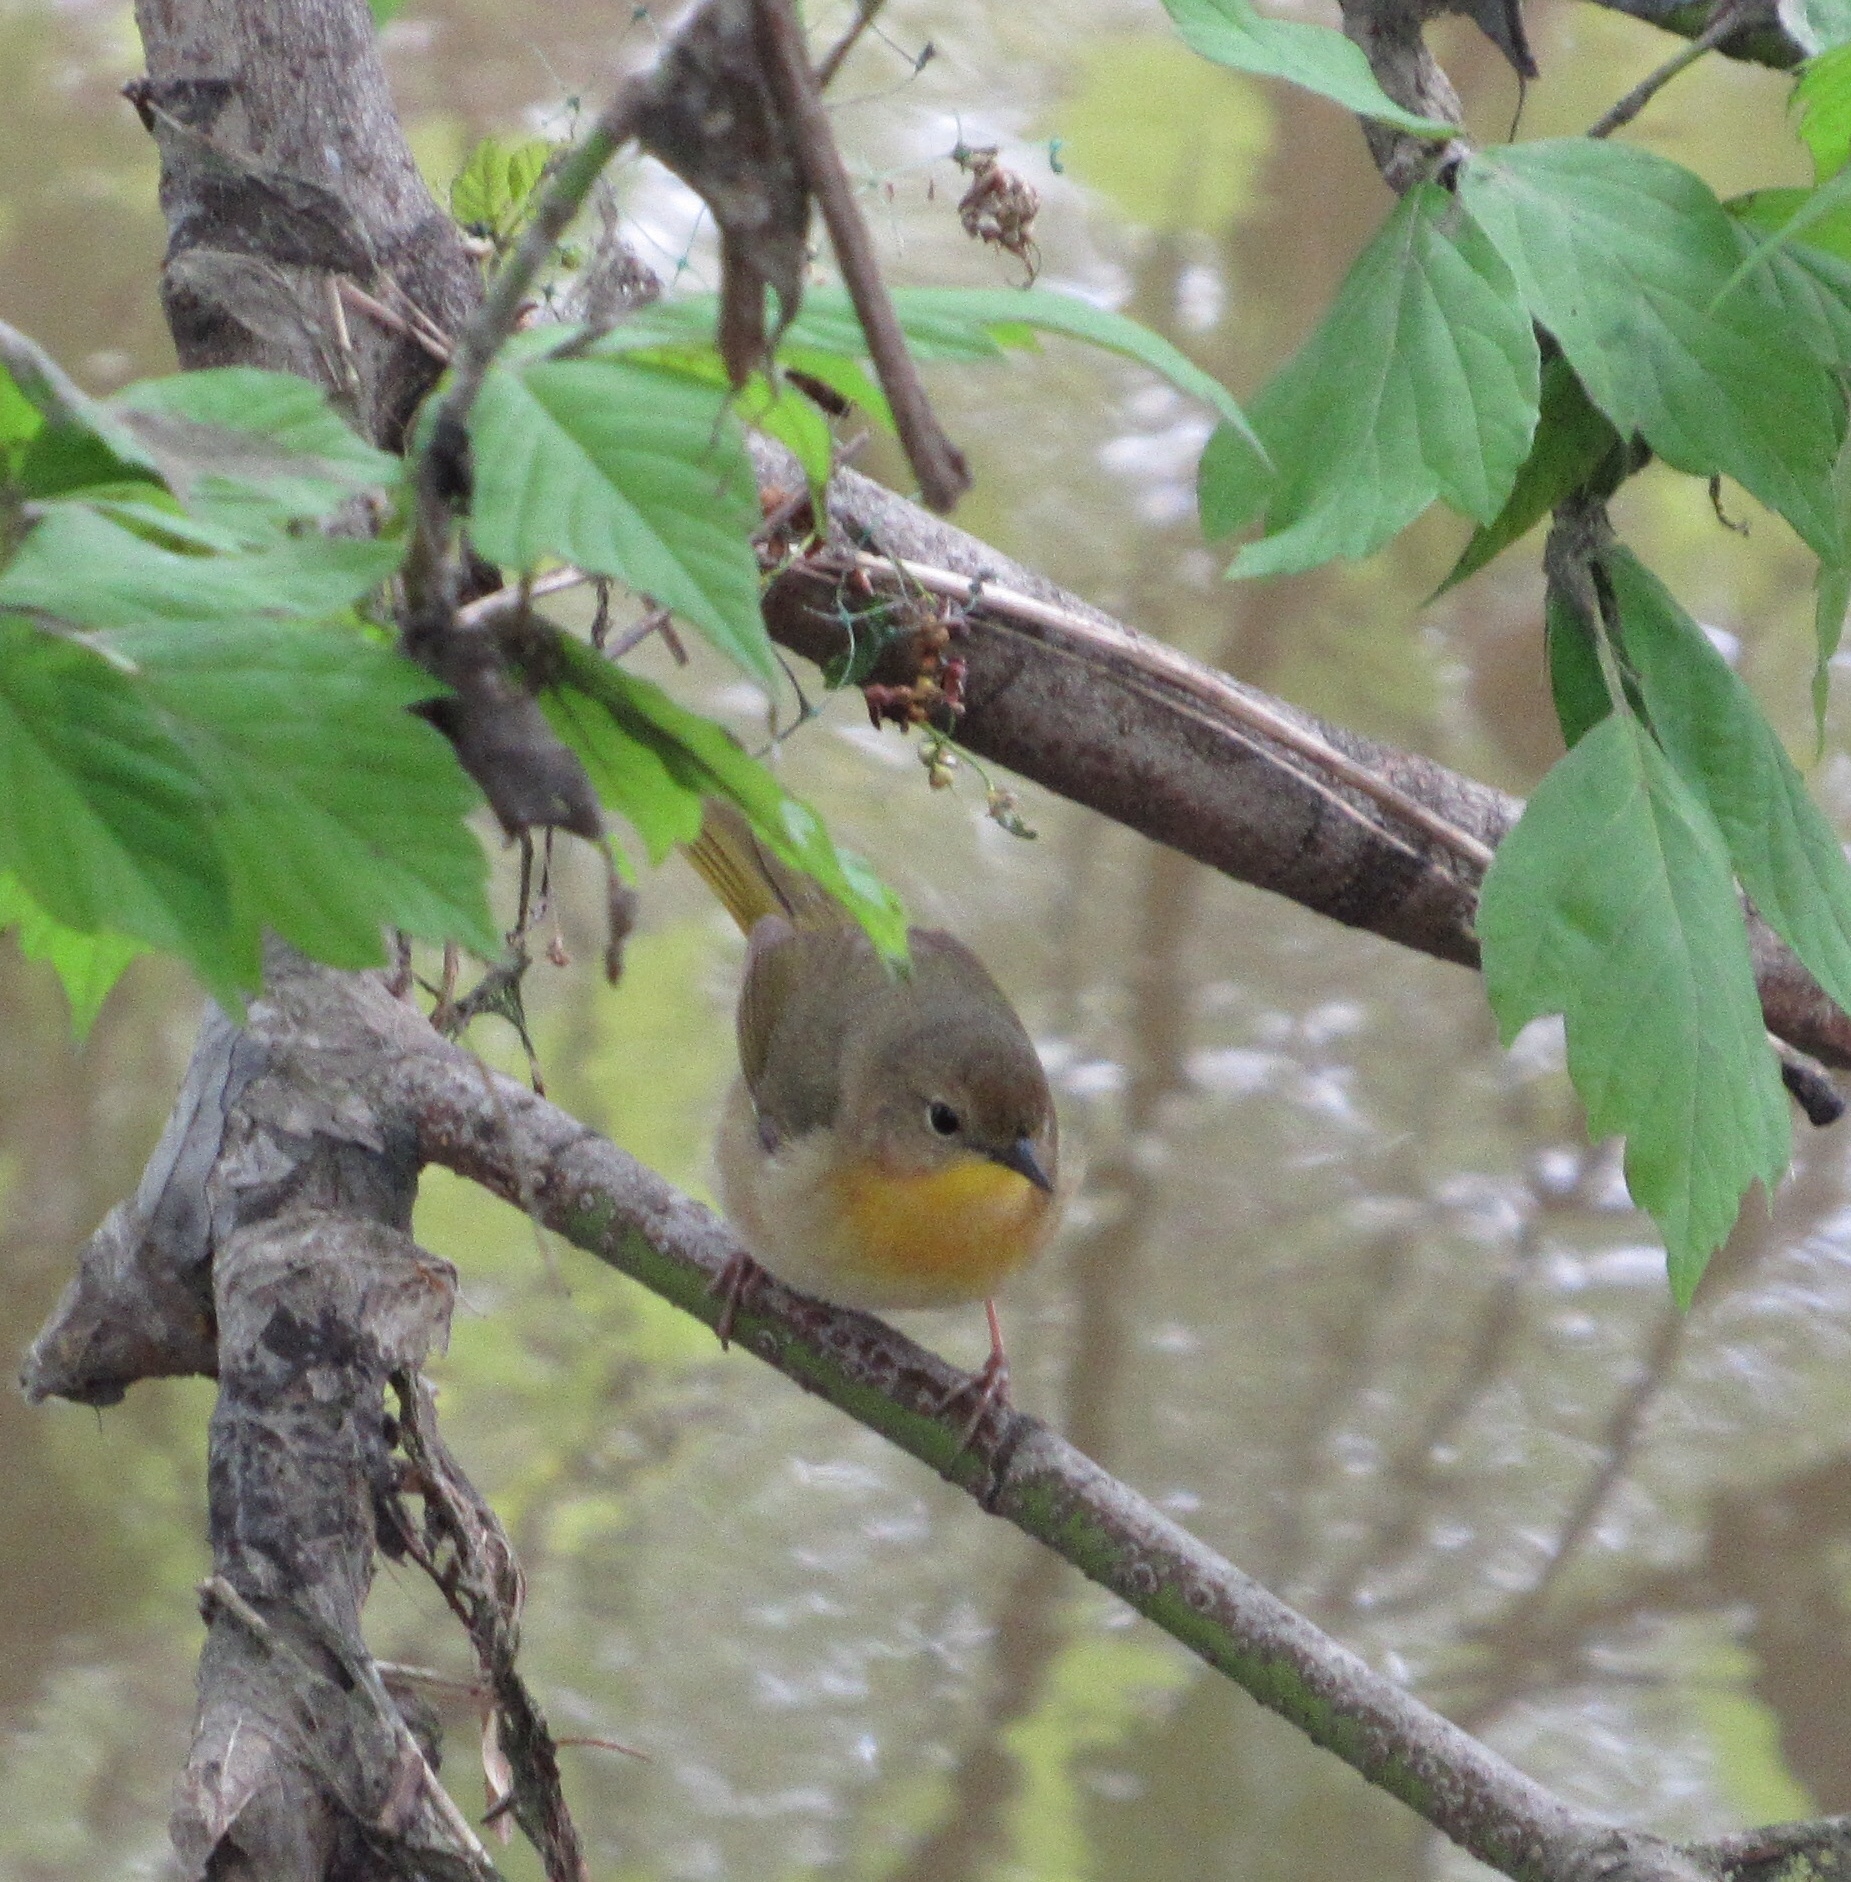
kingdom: Animalia
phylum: Chordata
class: Aves
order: Passeriformes
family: Parulidae
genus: Geothlypis
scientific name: Geothlypis trichas
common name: Common yellowthroat
